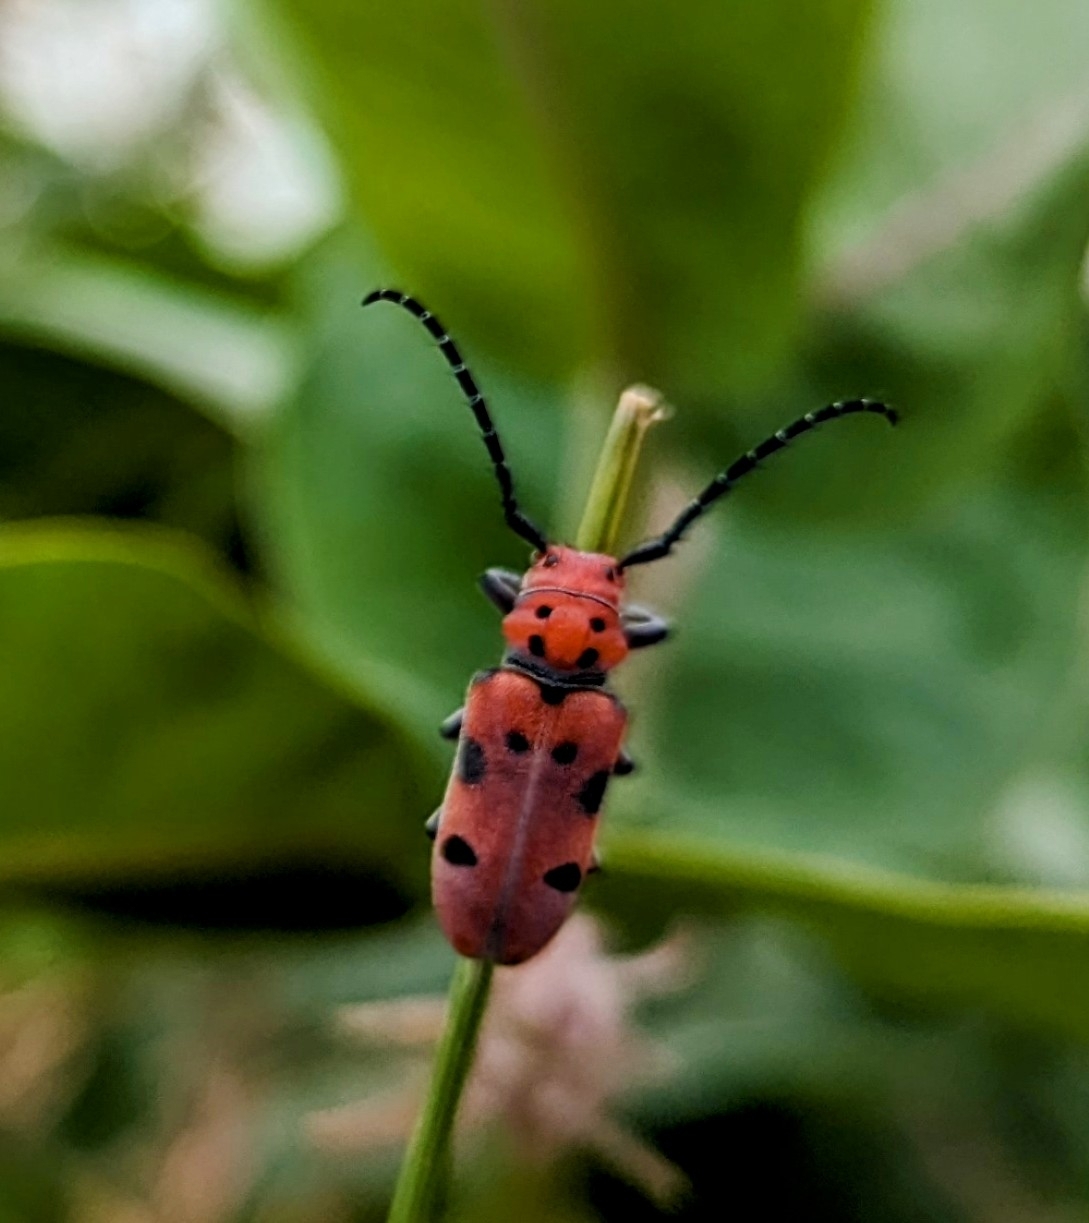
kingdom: Animalia
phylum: Arthropoda
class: Insecta
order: Coleoptera
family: Cerambycidae
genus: Tetraopes
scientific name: Tetraopes femoratus
